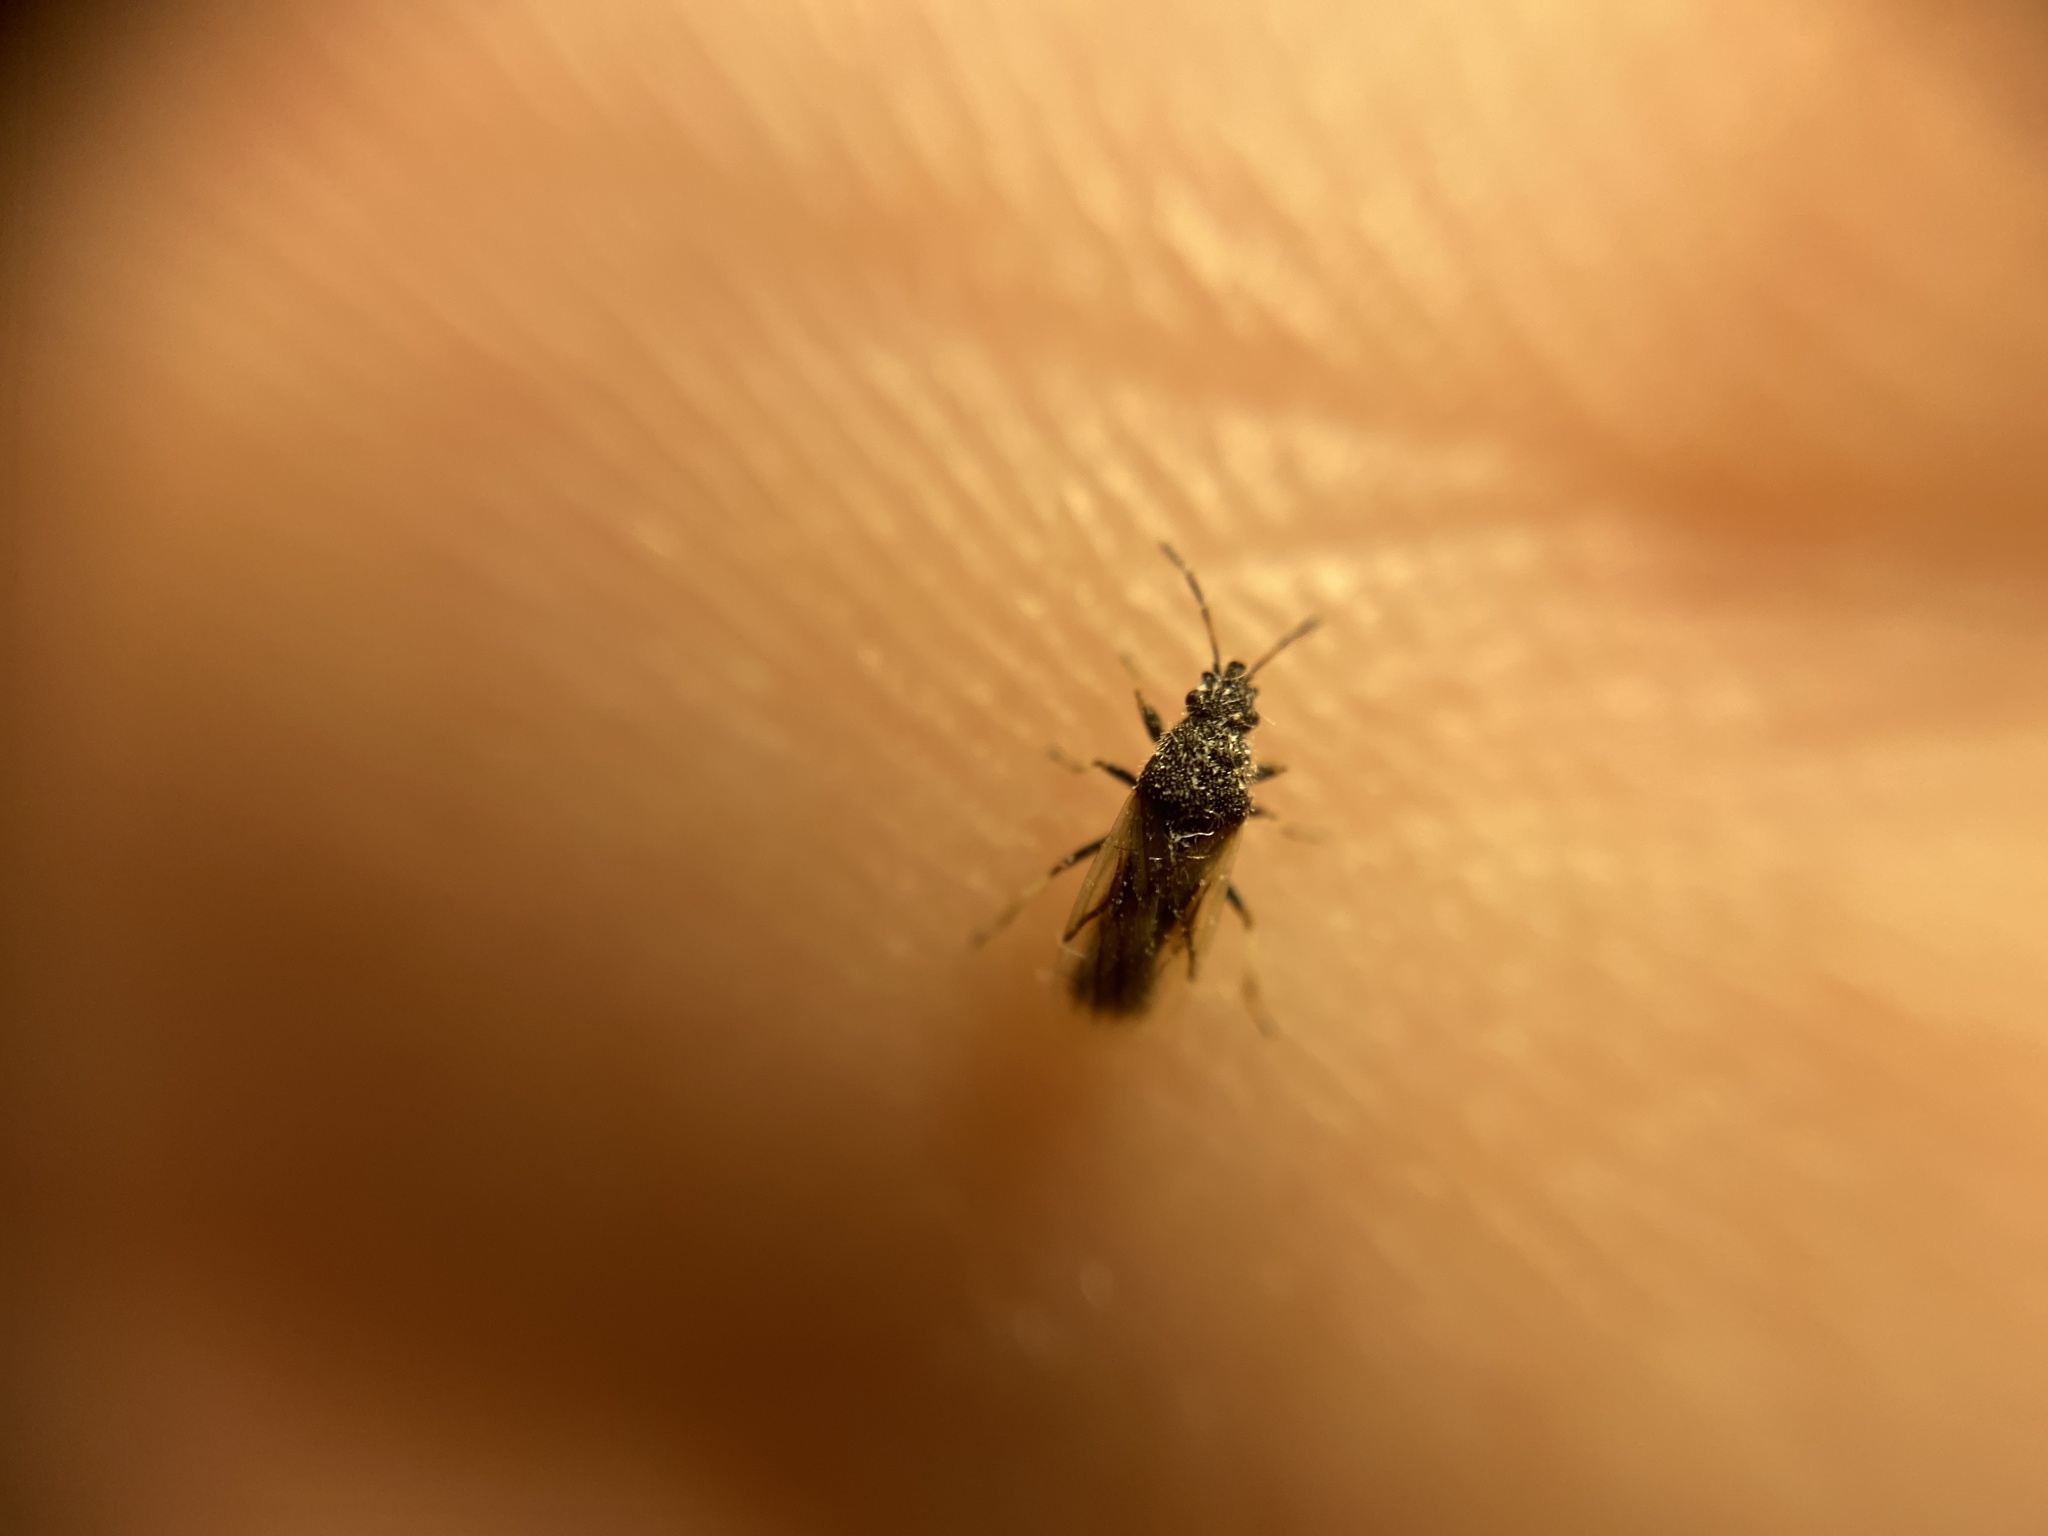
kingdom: Animalia
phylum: Arthropoda
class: Insecta
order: Hemiptera
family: Oxycarenidae
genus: Metopoplax
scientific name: Metopoplax ditomoides
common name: Seed bug
